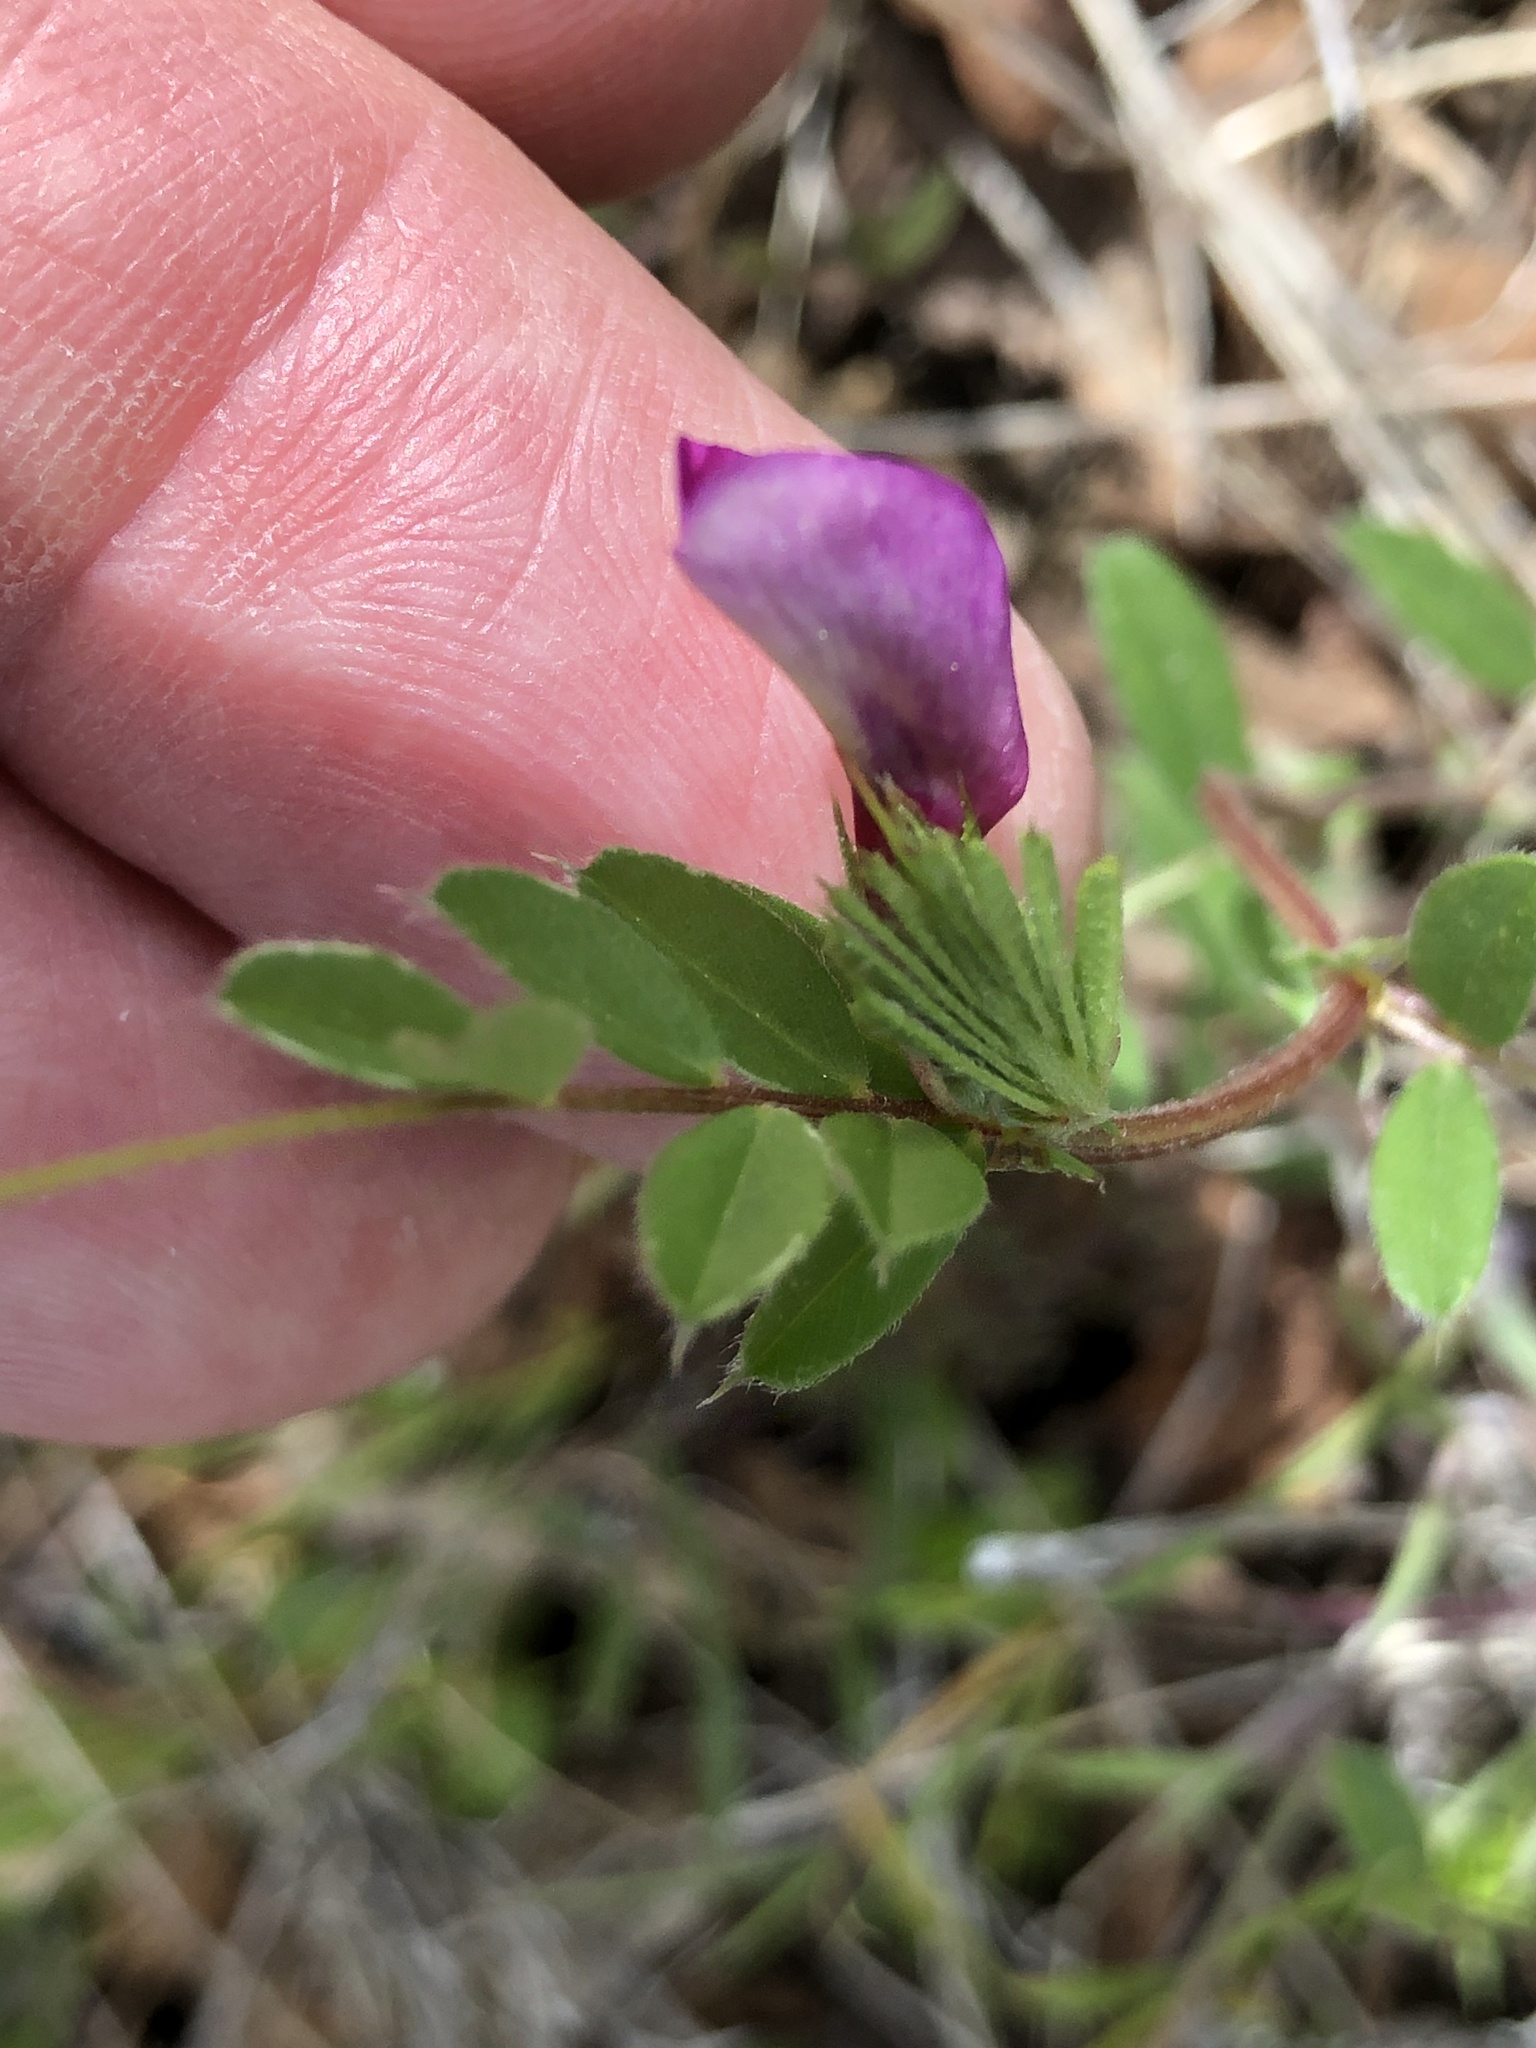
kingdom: Plantae
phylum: Tracheophyta
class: Magnoliopsida
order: Fabales
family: Fabaceae
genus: Vicia
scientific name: Vicia sativa
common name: Garden vetch
